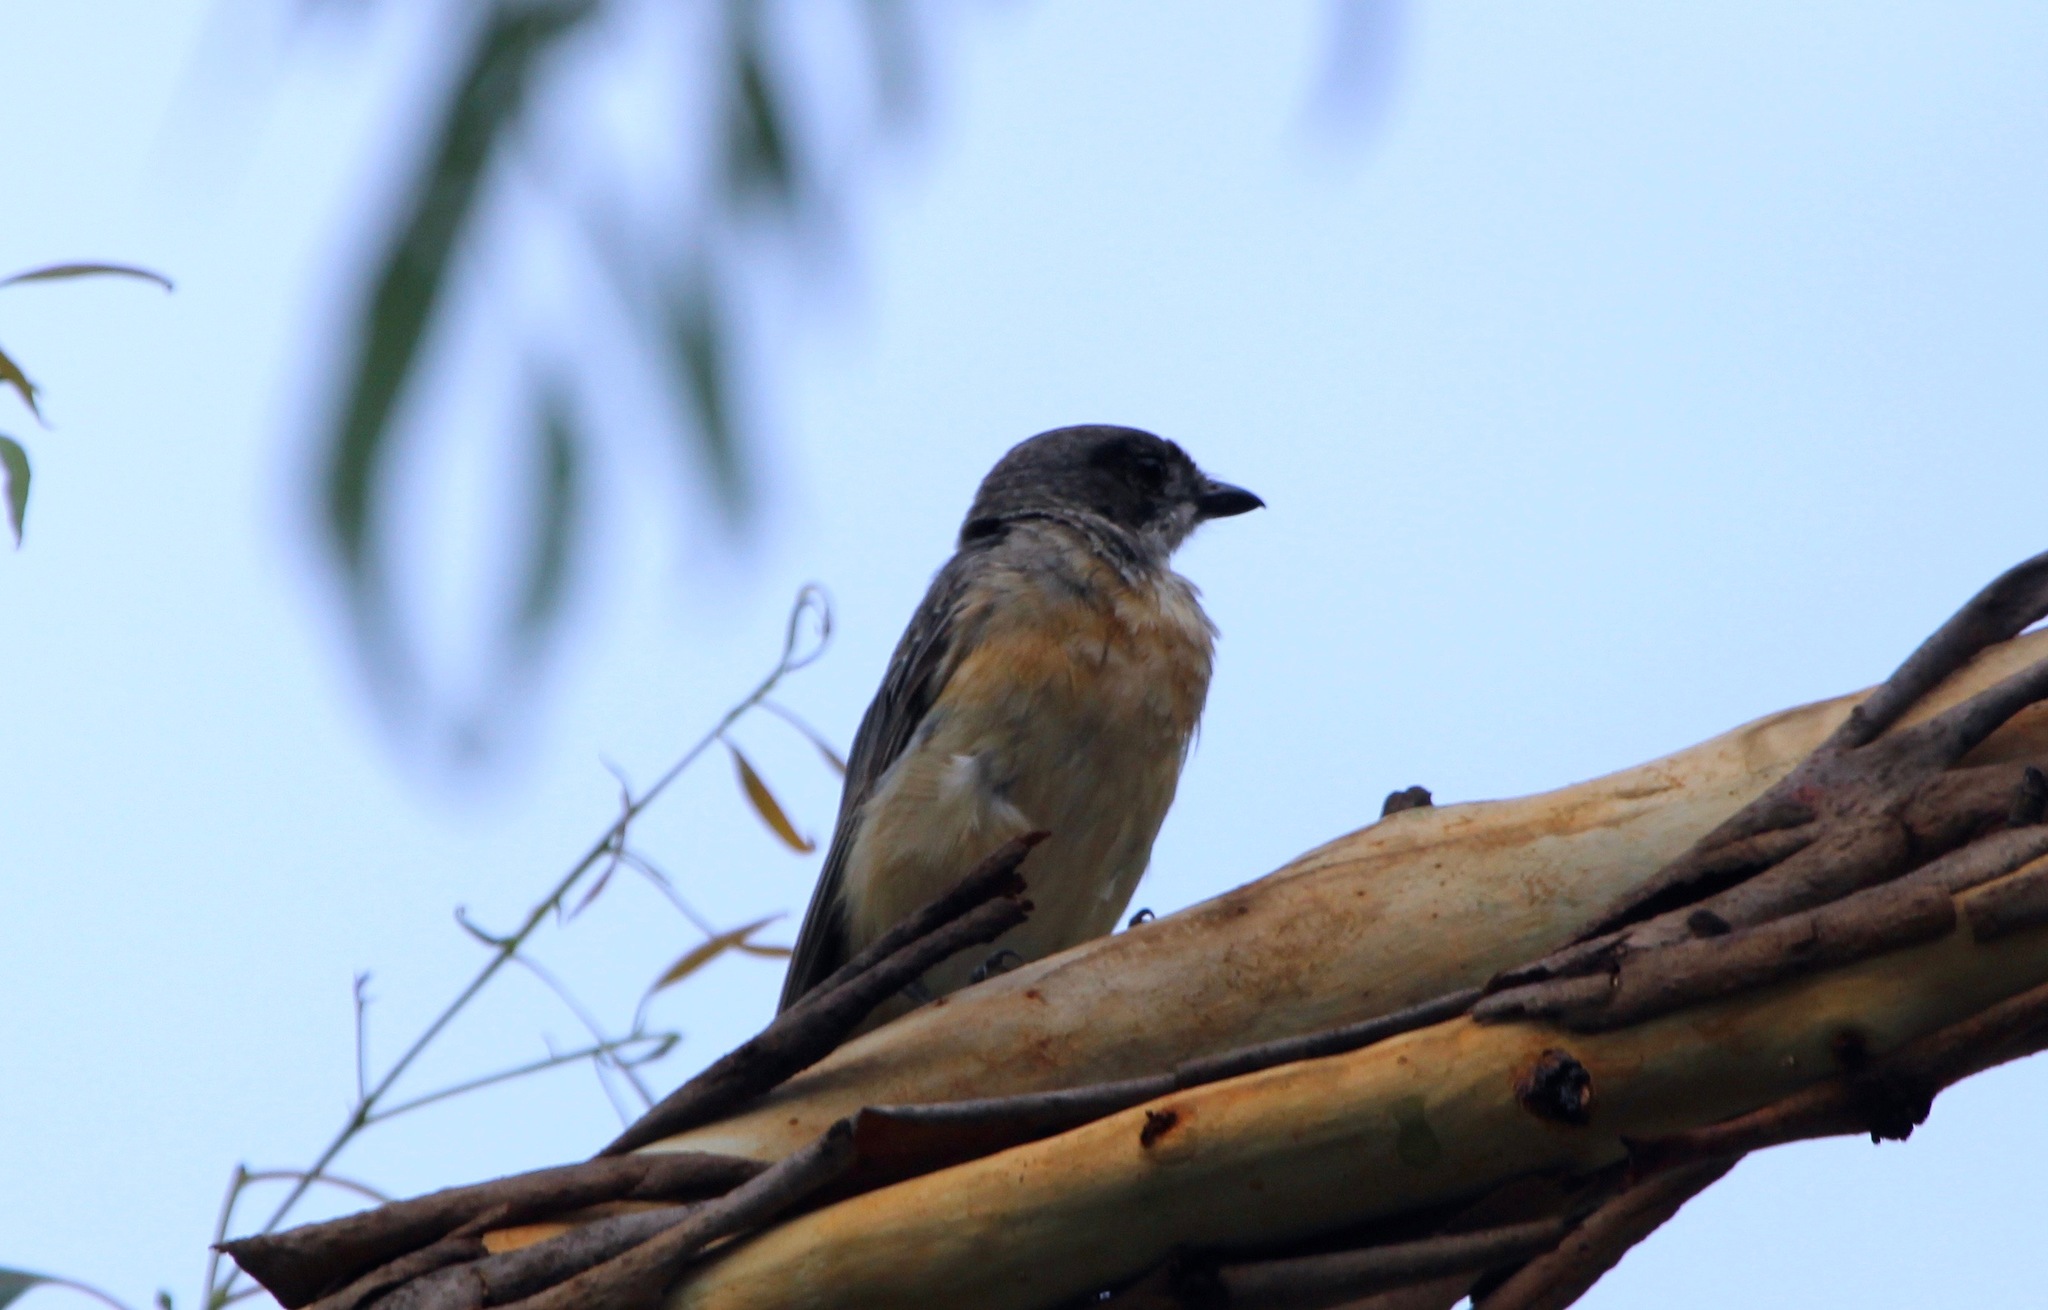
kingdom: Animalia
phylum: Chordata
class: Aves
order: Passeriformes
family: Pachycephalidae
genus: Pachycephala
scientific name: Pachycephala rufiventris
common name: Rufous whistler
